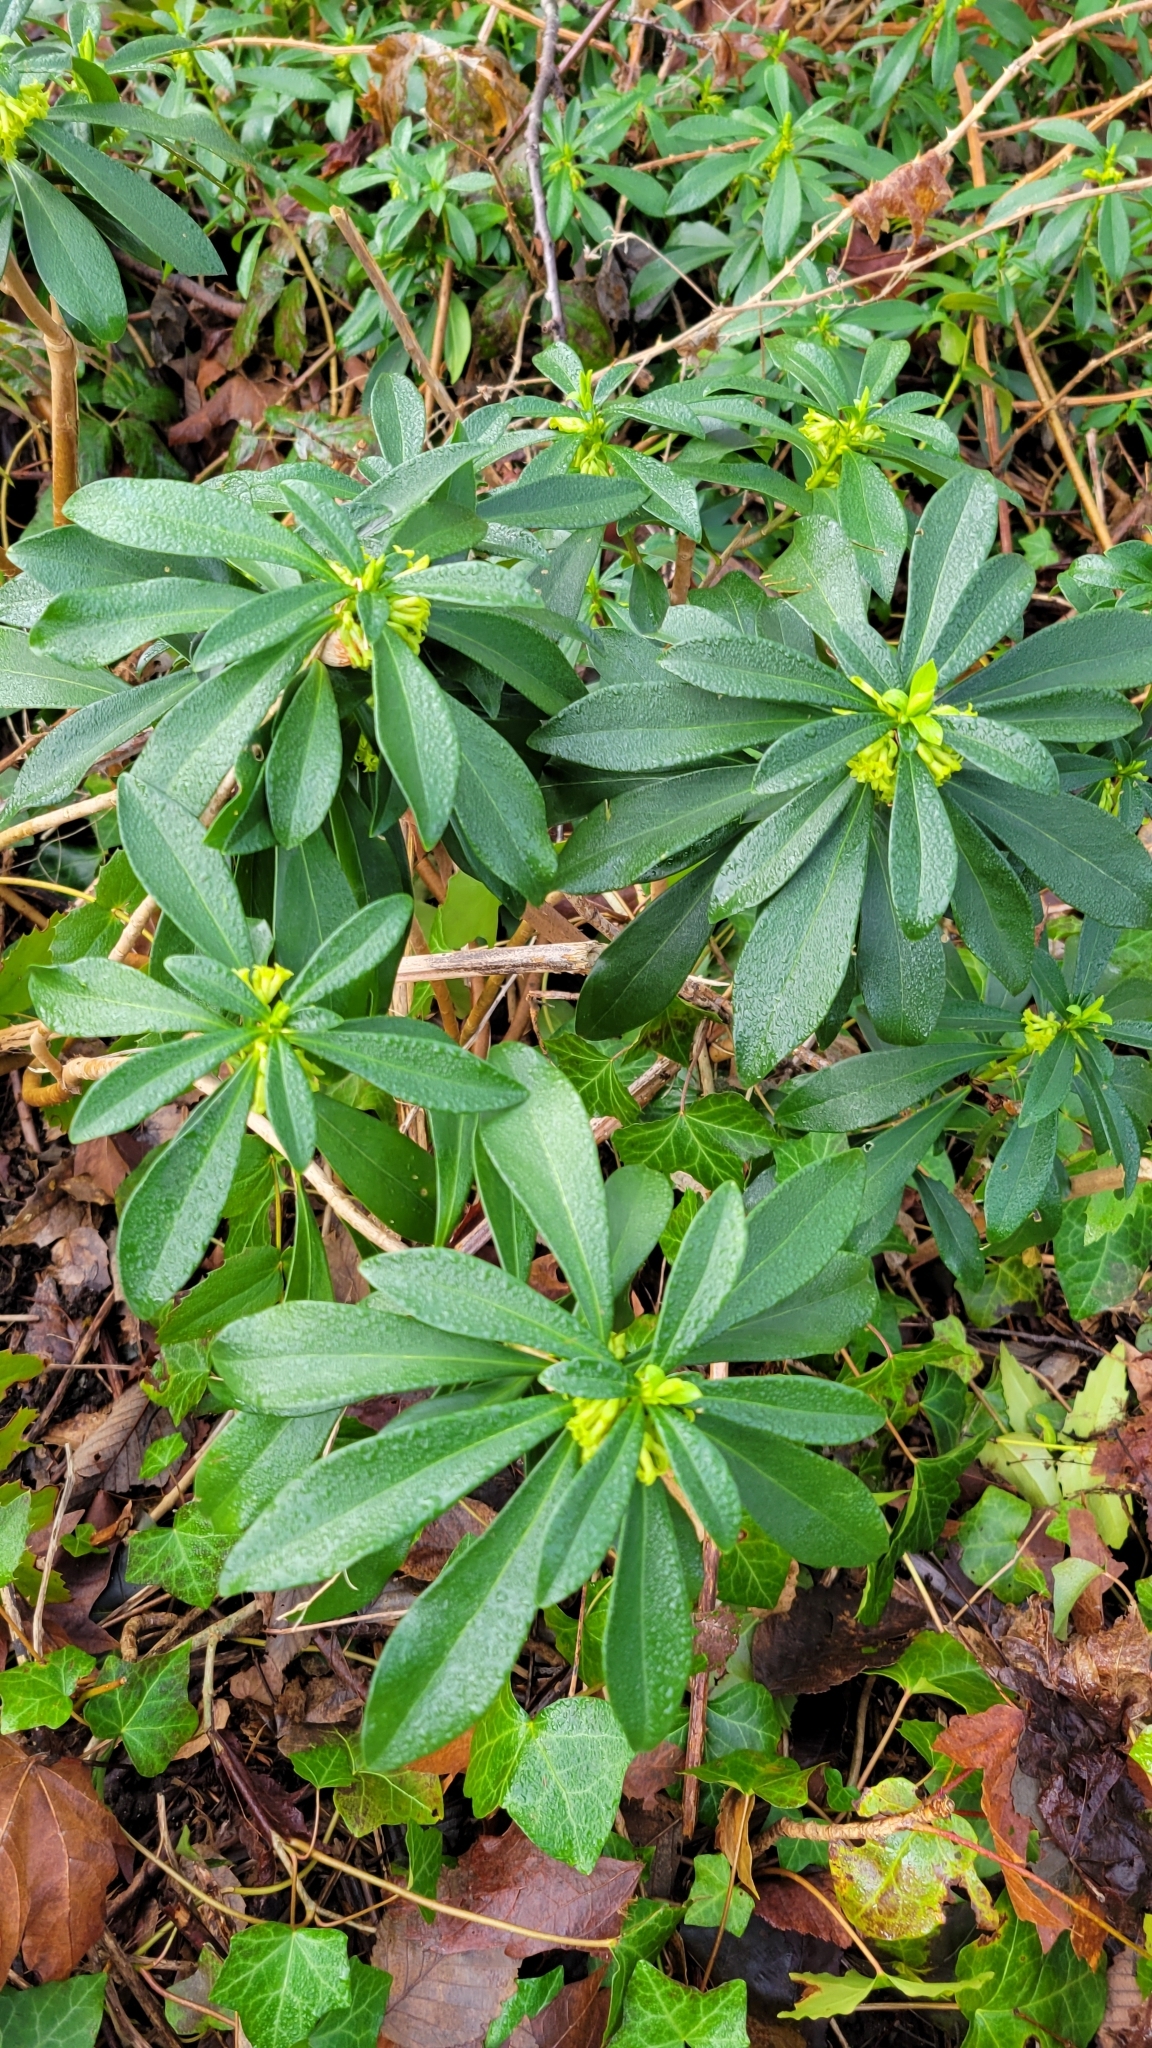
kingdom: Plantae
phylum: Tracheophyta
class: Magnoliopsida
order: Malvales
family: Thymelaeaceae
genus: Daphne
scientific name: Daphne laureola
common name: Spurge-laurel
